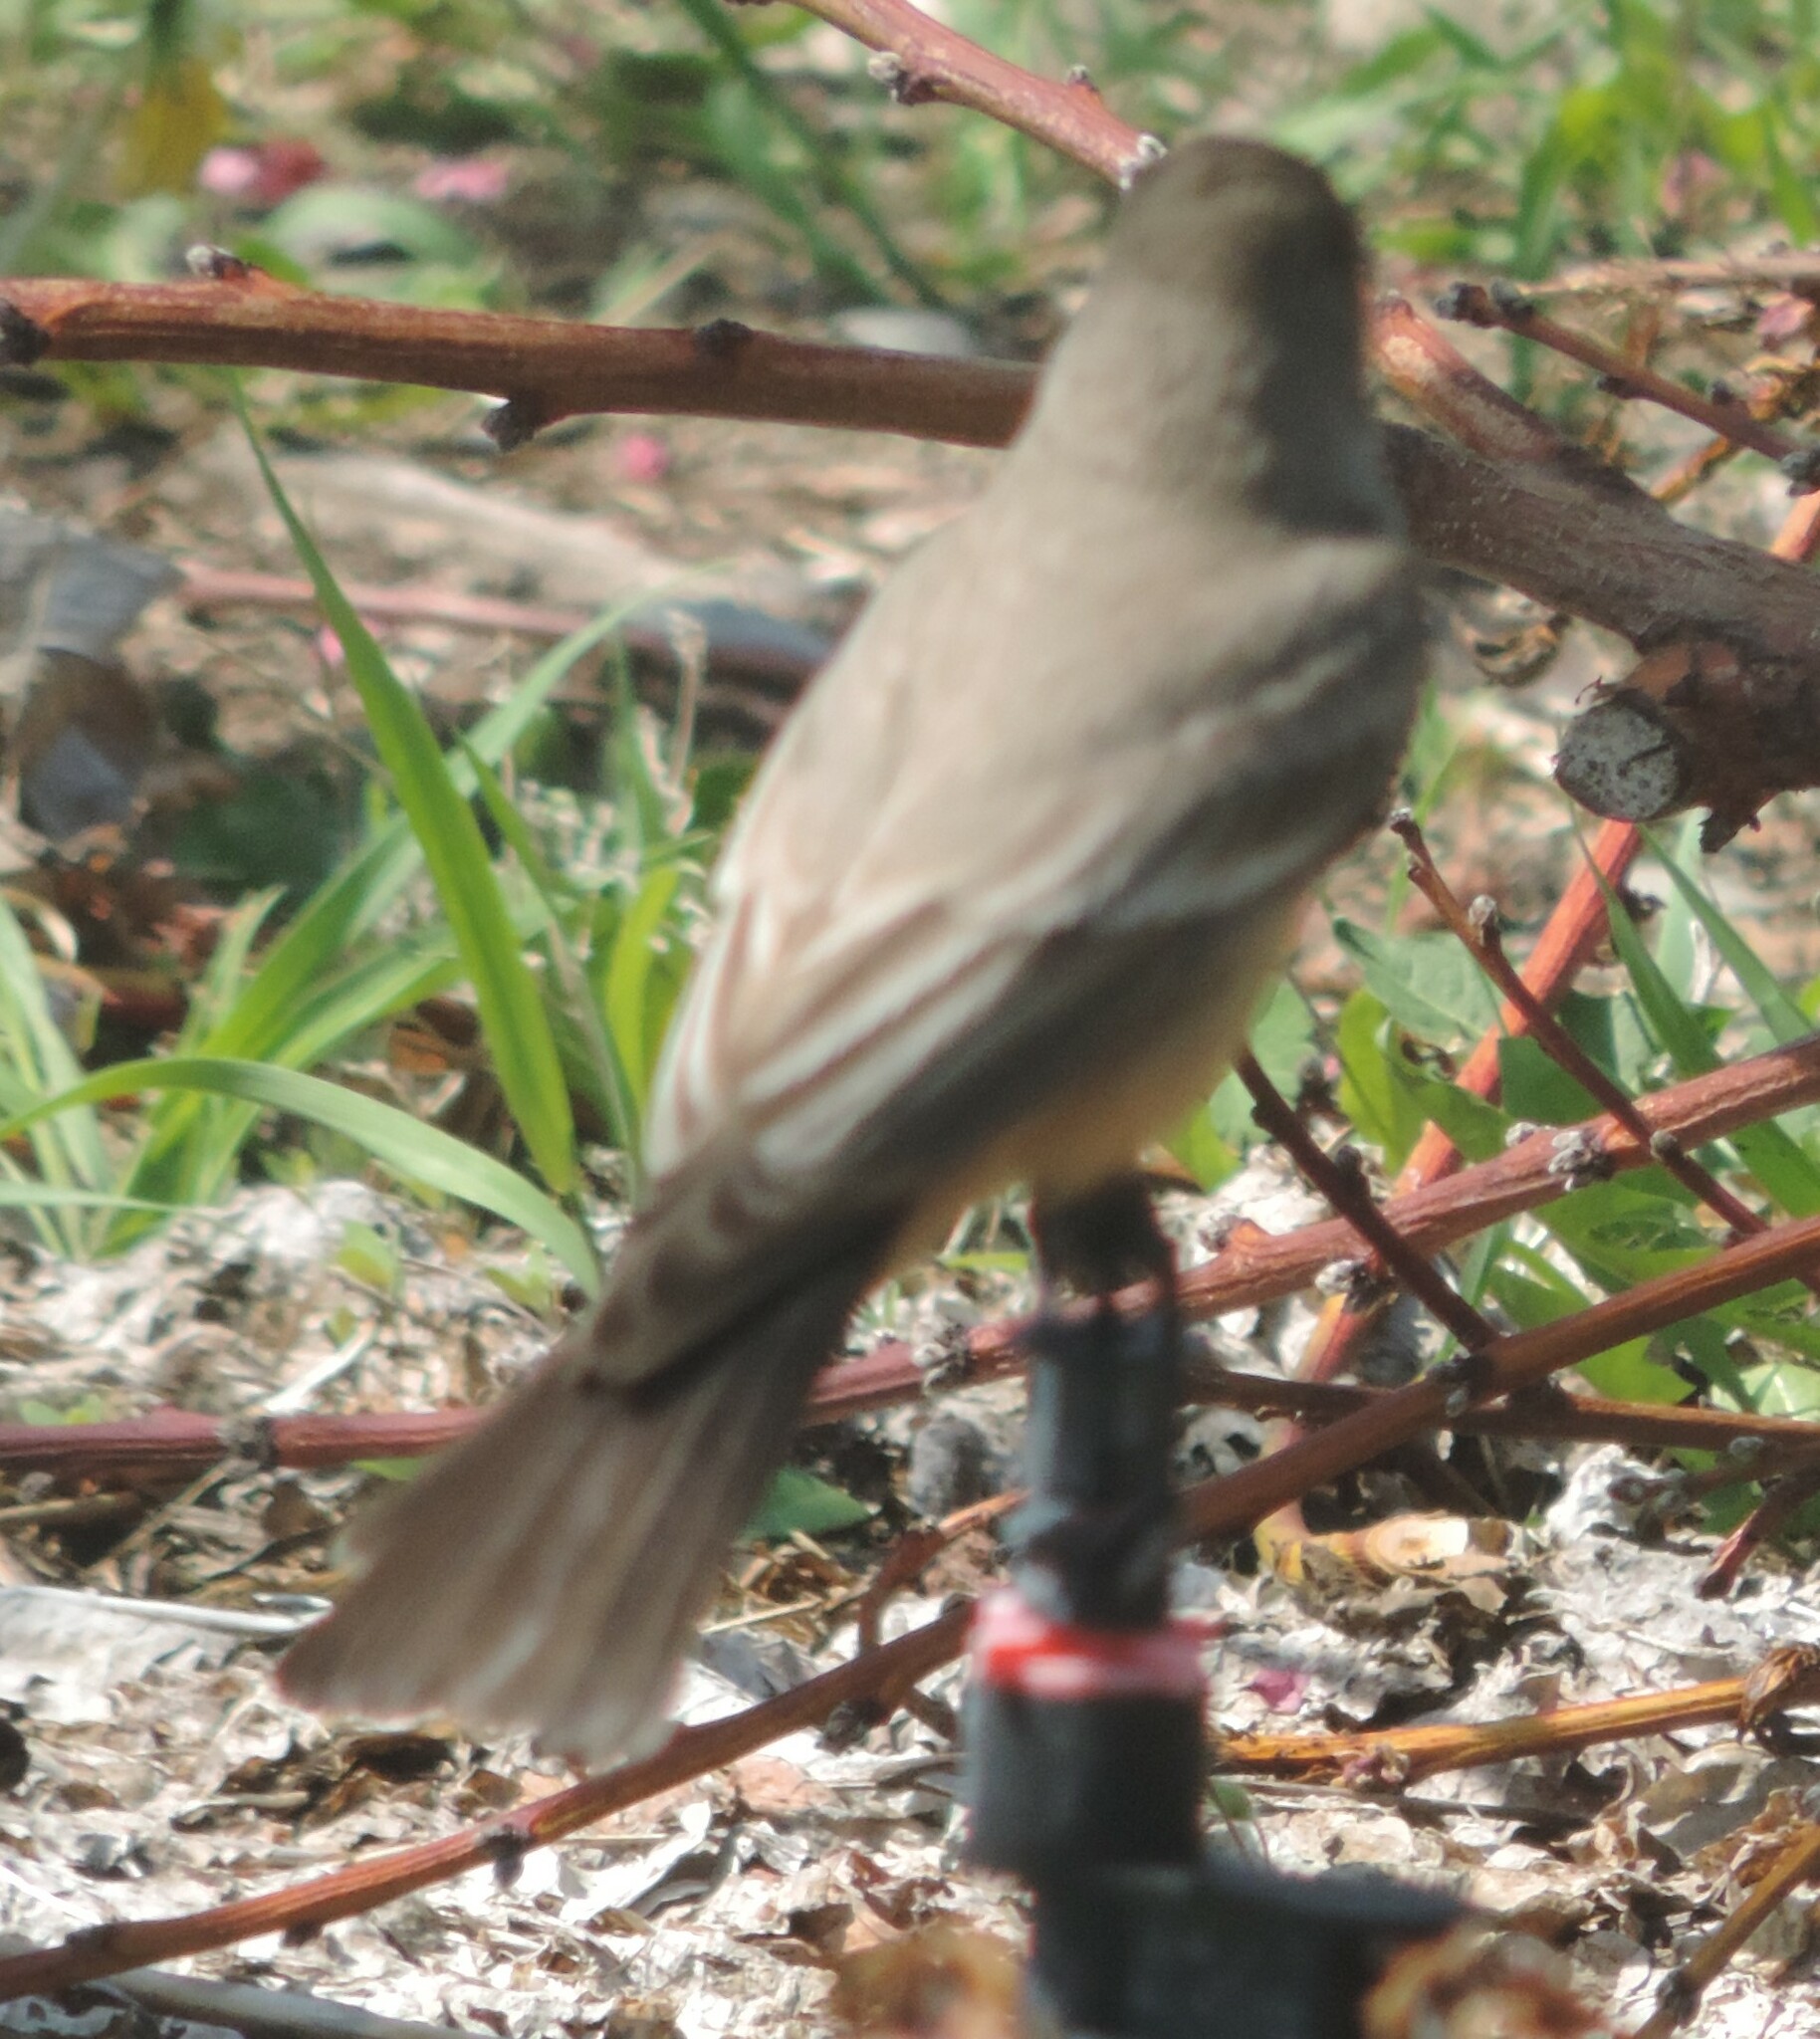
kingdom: Animalia
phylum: Chordata
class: Aves
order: Passeriformes
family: Tyrannidae
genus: Sayornis
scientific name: Sayornis saya
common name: Say's phoebe
